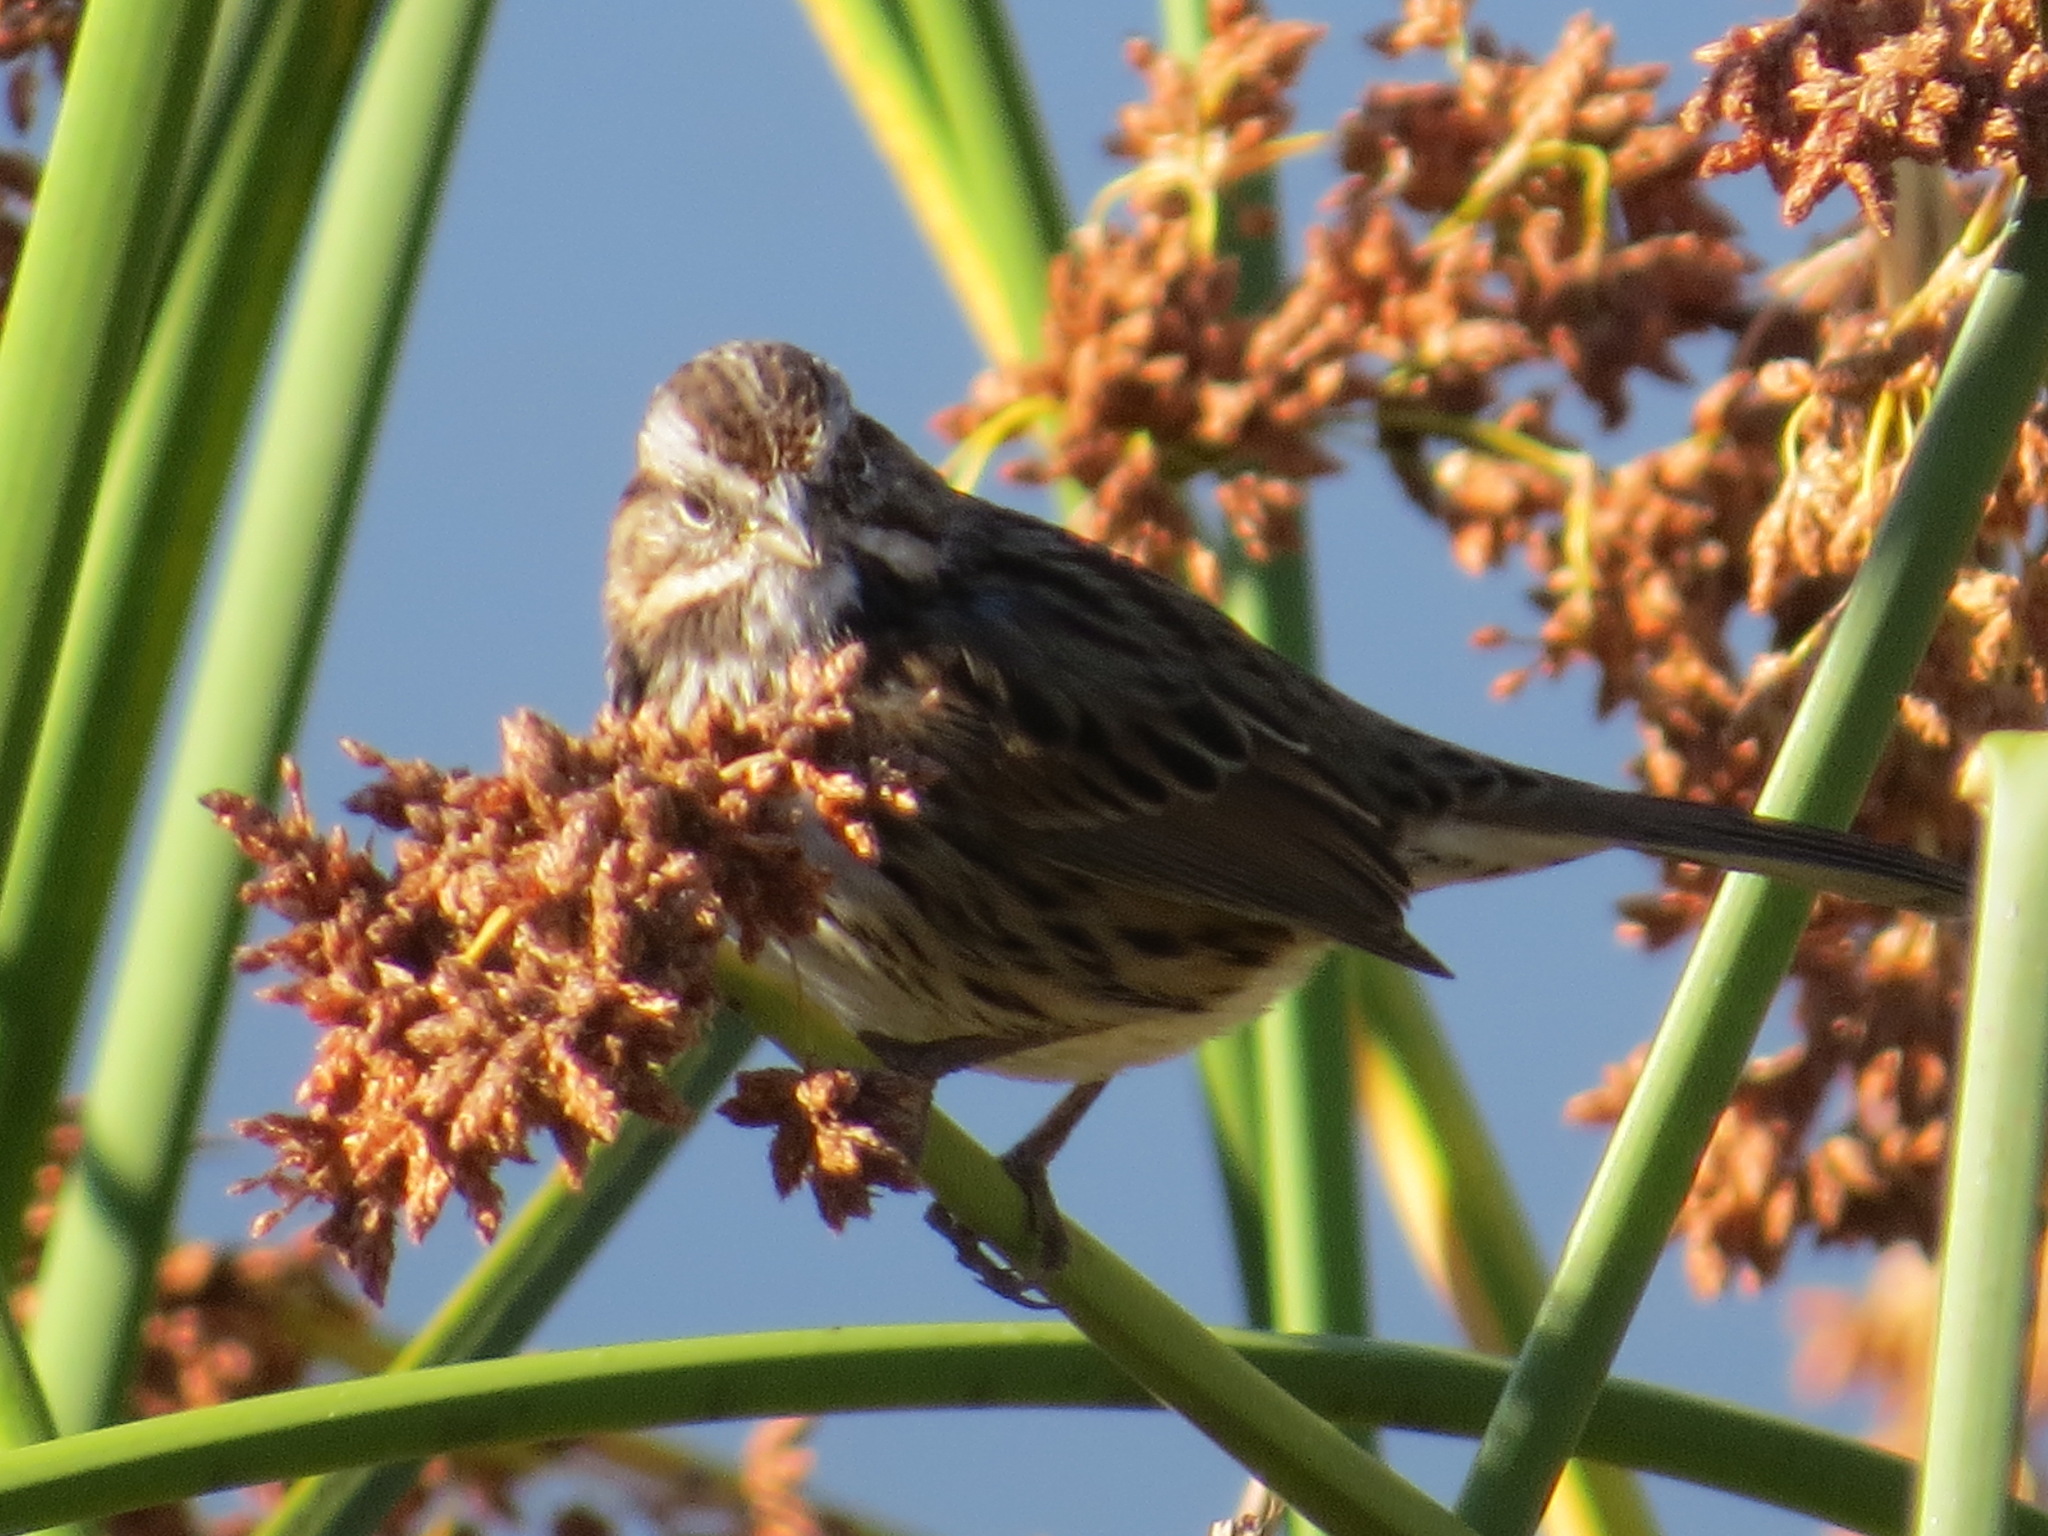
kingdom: Animalia
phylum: Chordata
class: Aves
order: Passeriformes
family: Passerellidae
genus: Melospiza
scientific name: Melospiza melodia
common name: Song sparrow
